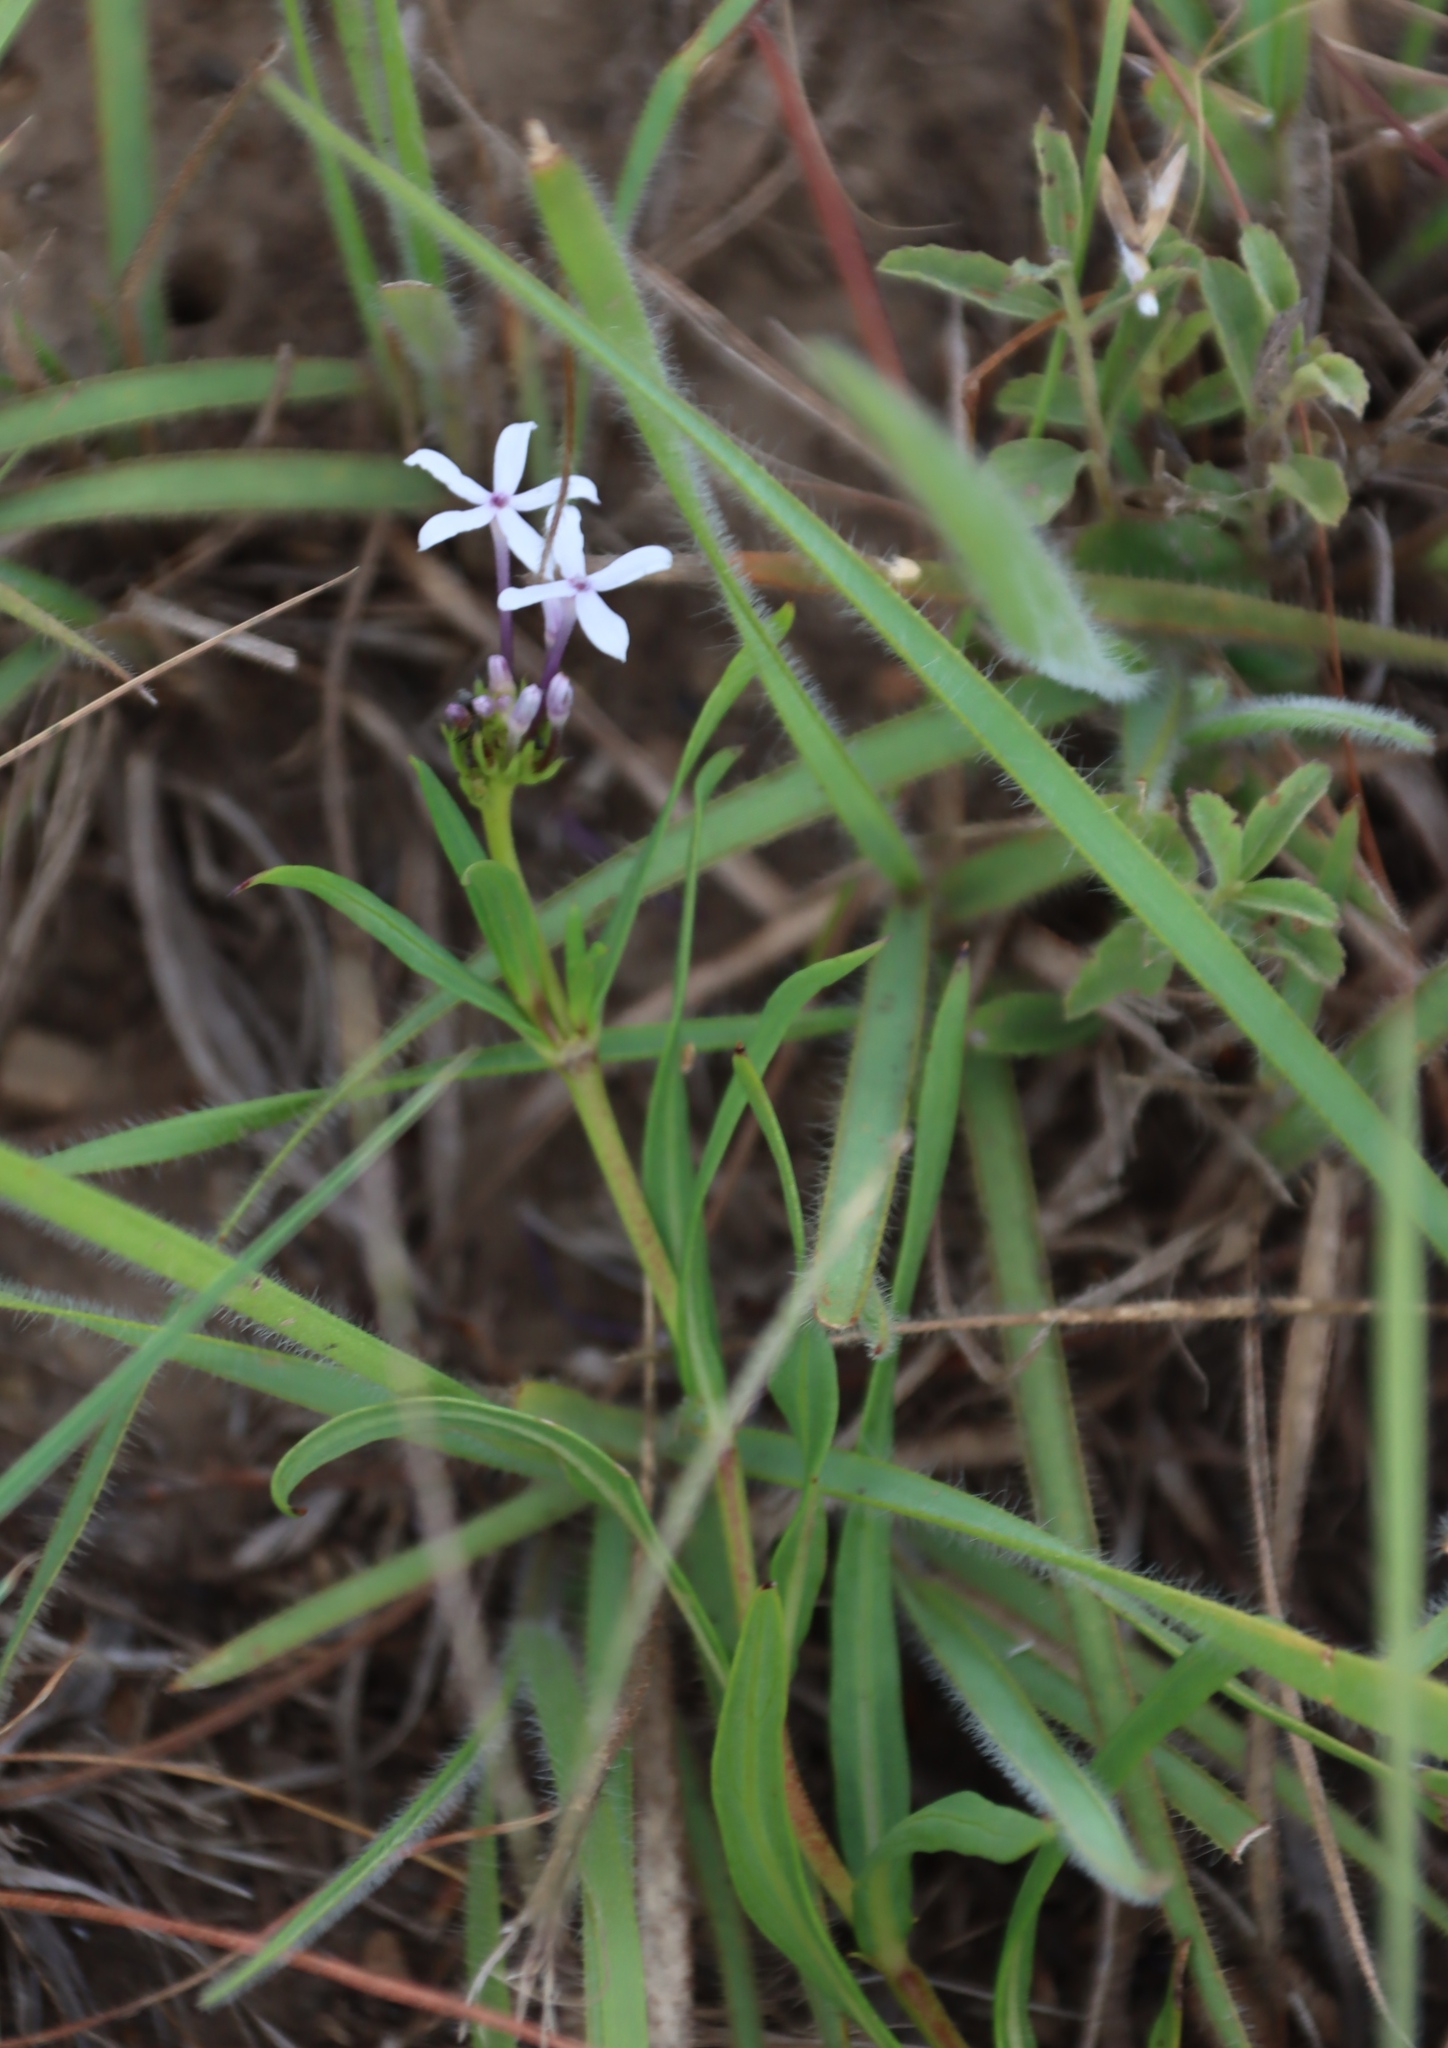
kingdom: Plantae
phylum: Tracheophyta
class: Magnoliopsida
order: Gentianales
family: Rubiaceae
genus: Pentanisia
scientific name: Pentanisia angustifolia
